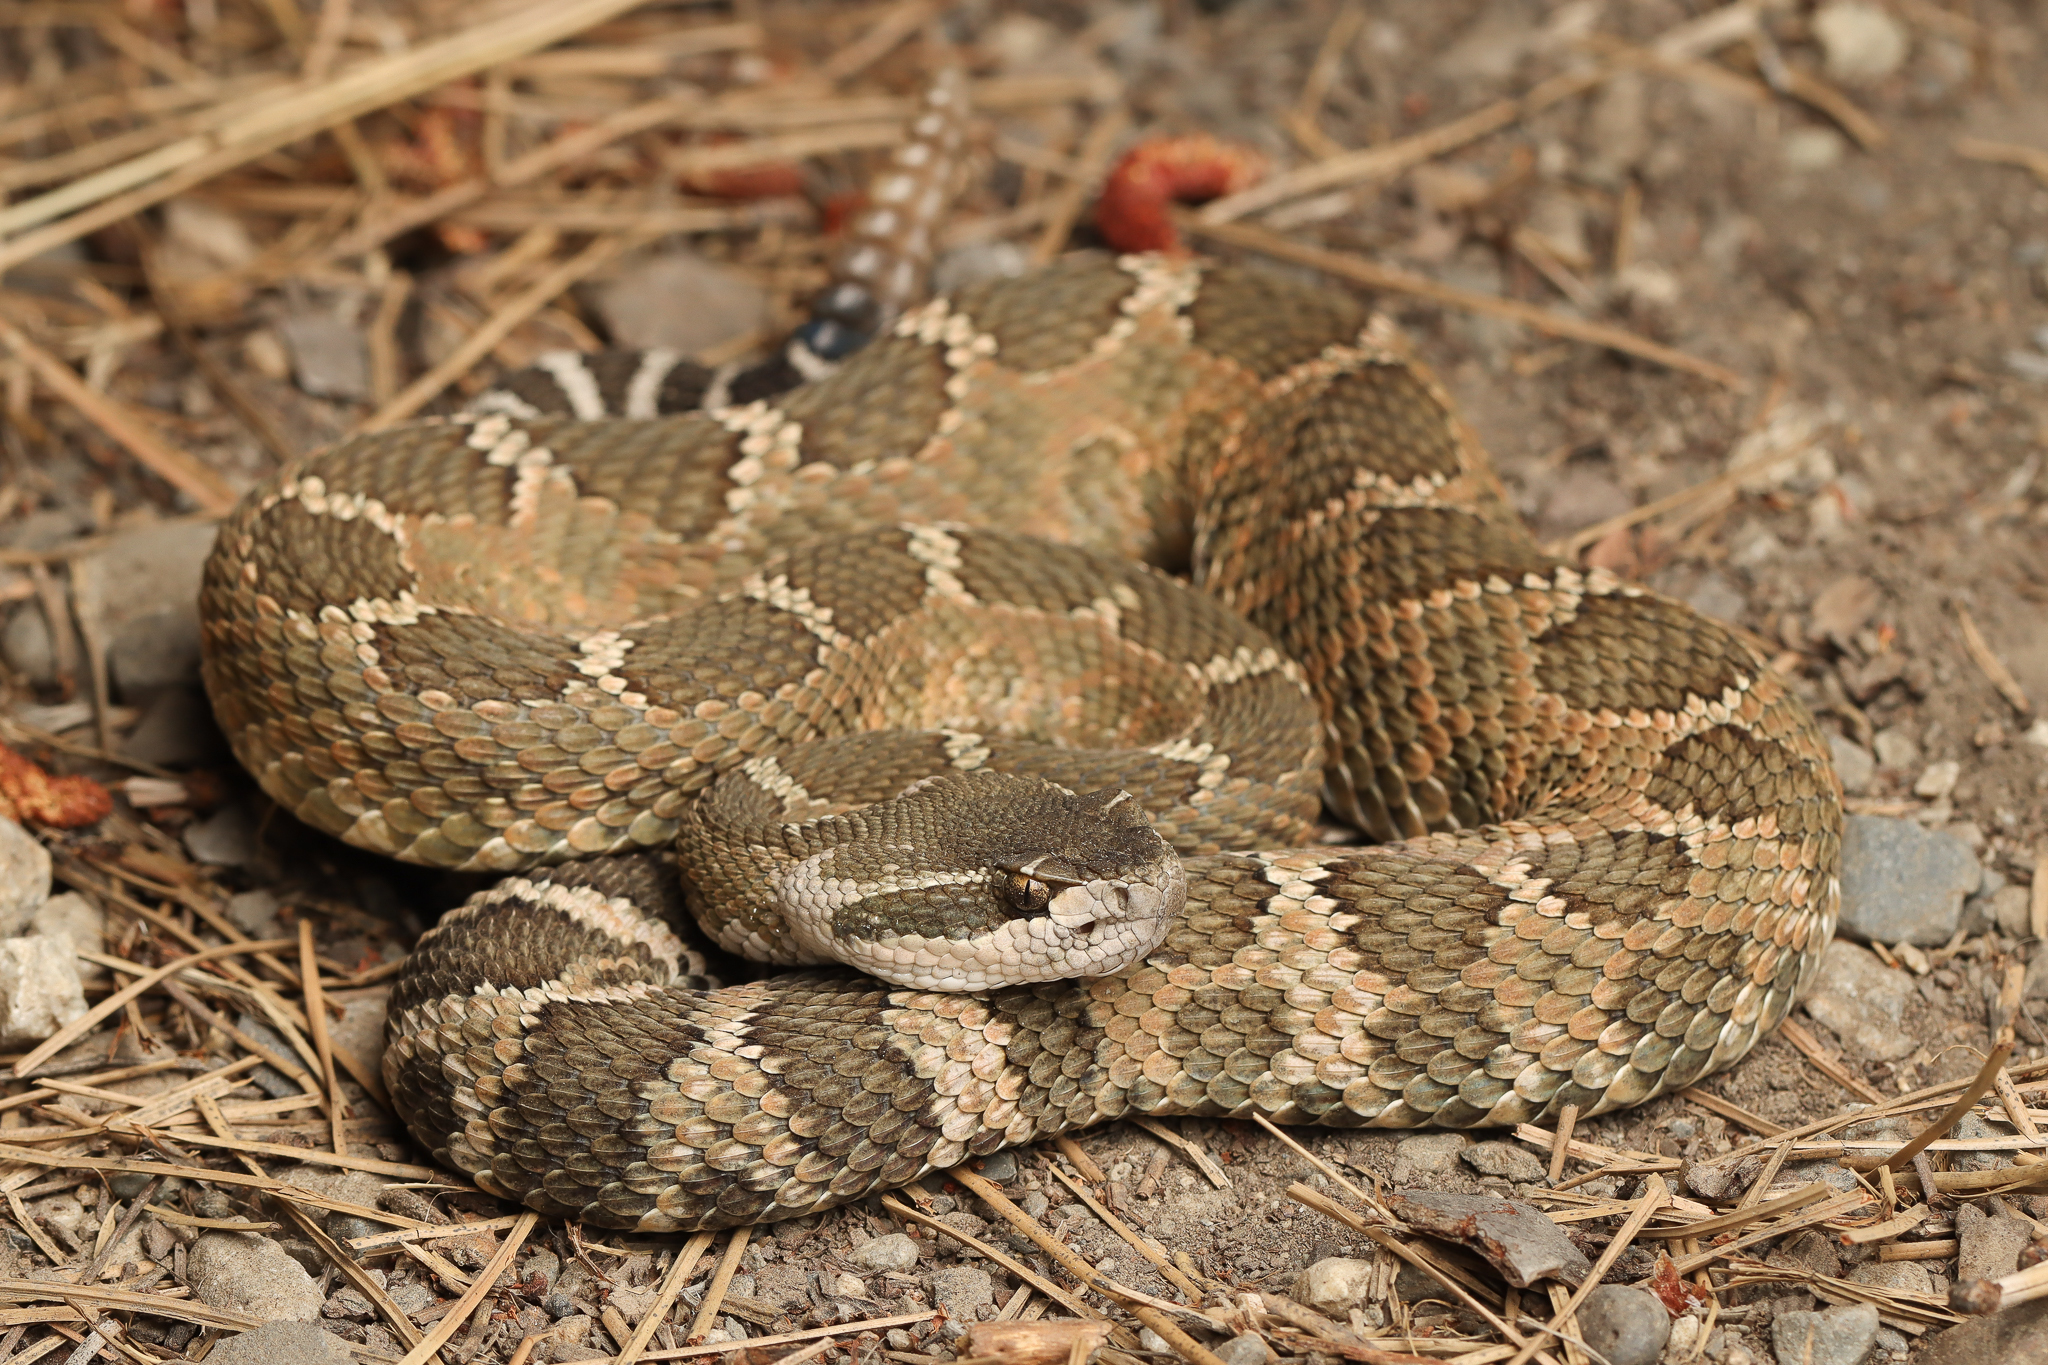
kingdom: Animalia
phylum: Chordata
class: Squamata
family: Viperidae
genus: Crotalus
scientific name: Crotalus oreganus
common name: Abyssus
